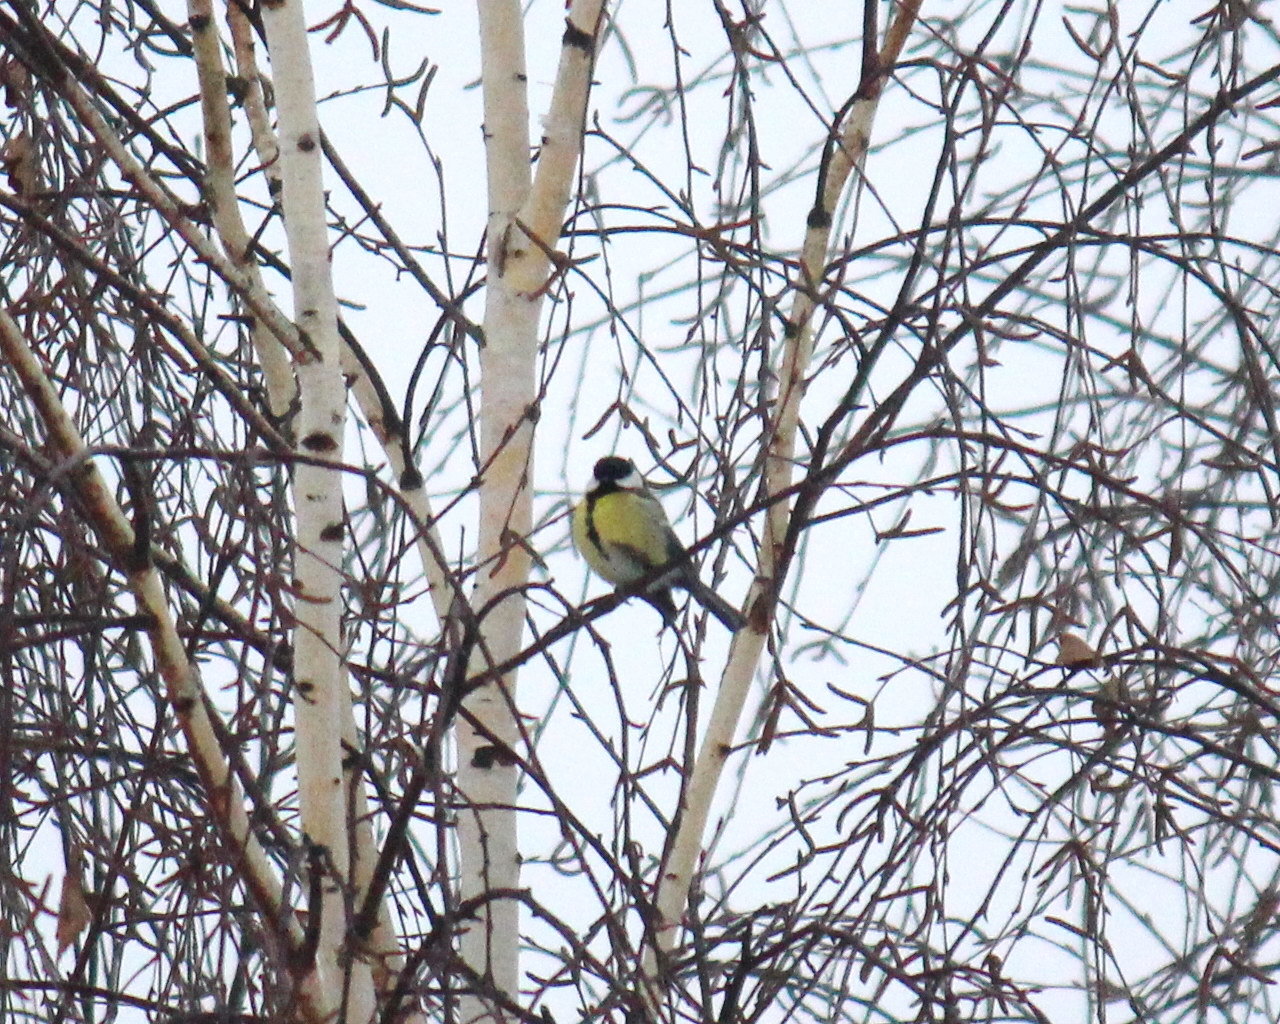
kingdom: Animalia
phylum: Chordata
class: Aves
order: Passeriformes
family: Paridae
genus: Parus
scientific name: Parus major
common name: Great tit
